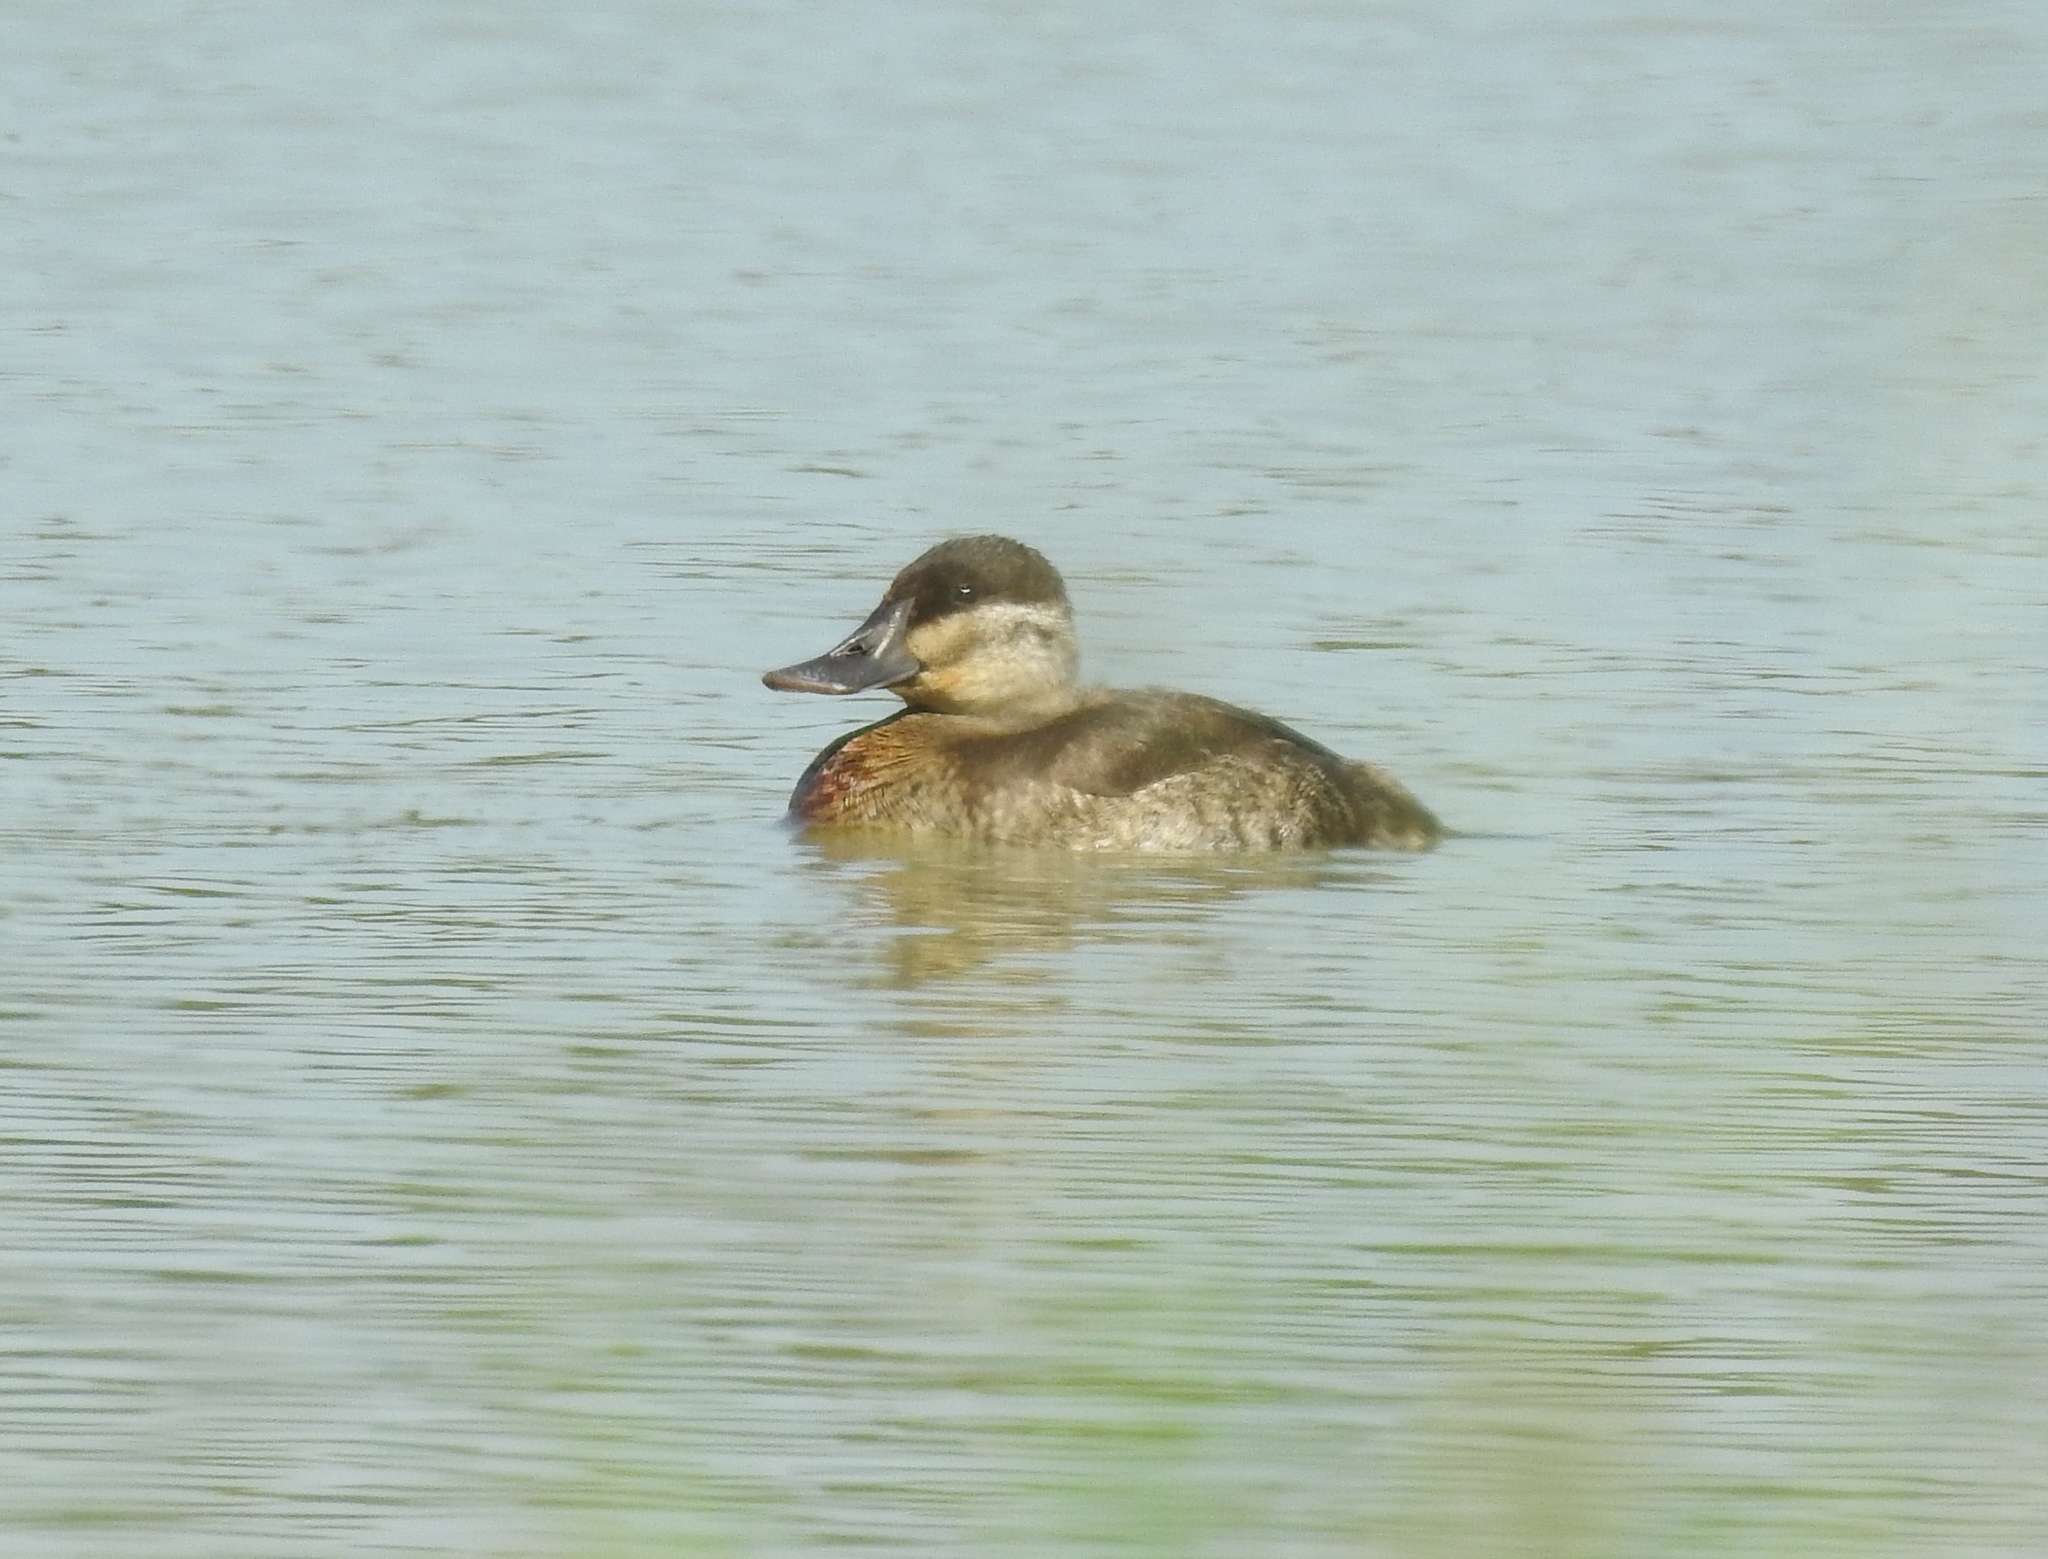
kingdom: Animalia
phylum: Chordata
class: Aves
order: Anseriformes
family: Anatidae
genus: Oxyura
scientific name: Oxyura jamaicensis
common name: Ruddy duck
